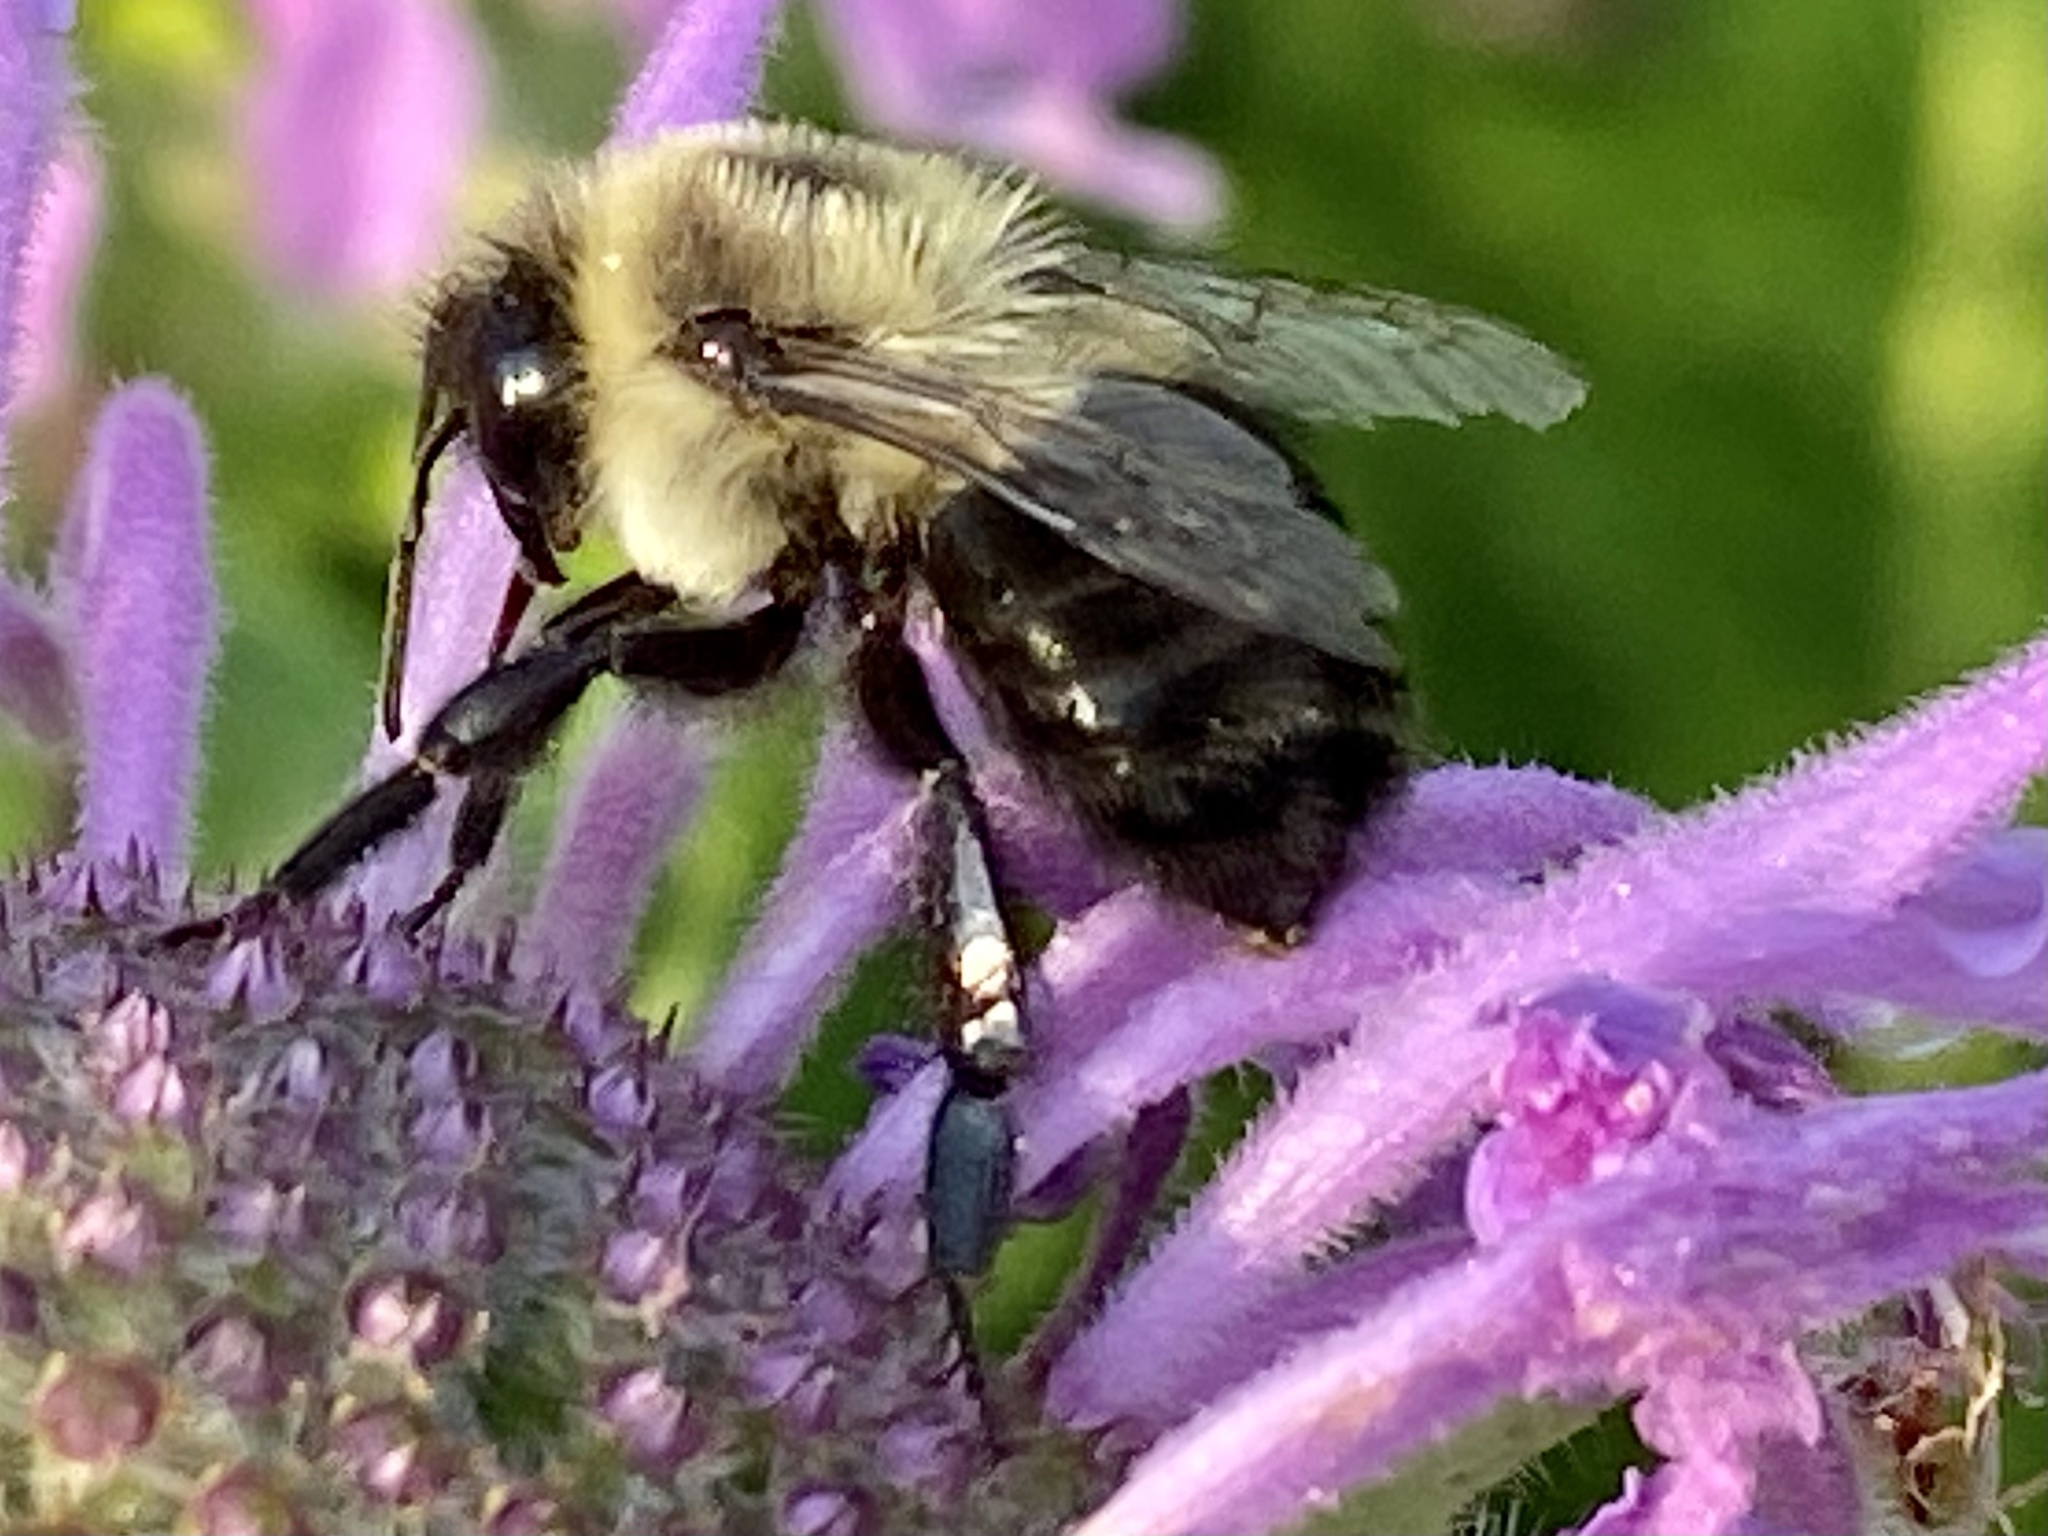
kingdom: Animalia
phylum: Arthropoda
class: Insecta
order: Hymenoptera
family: Apidae
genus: Bombus
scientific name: Bombus impatiens
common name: Common eastern bumble bee
